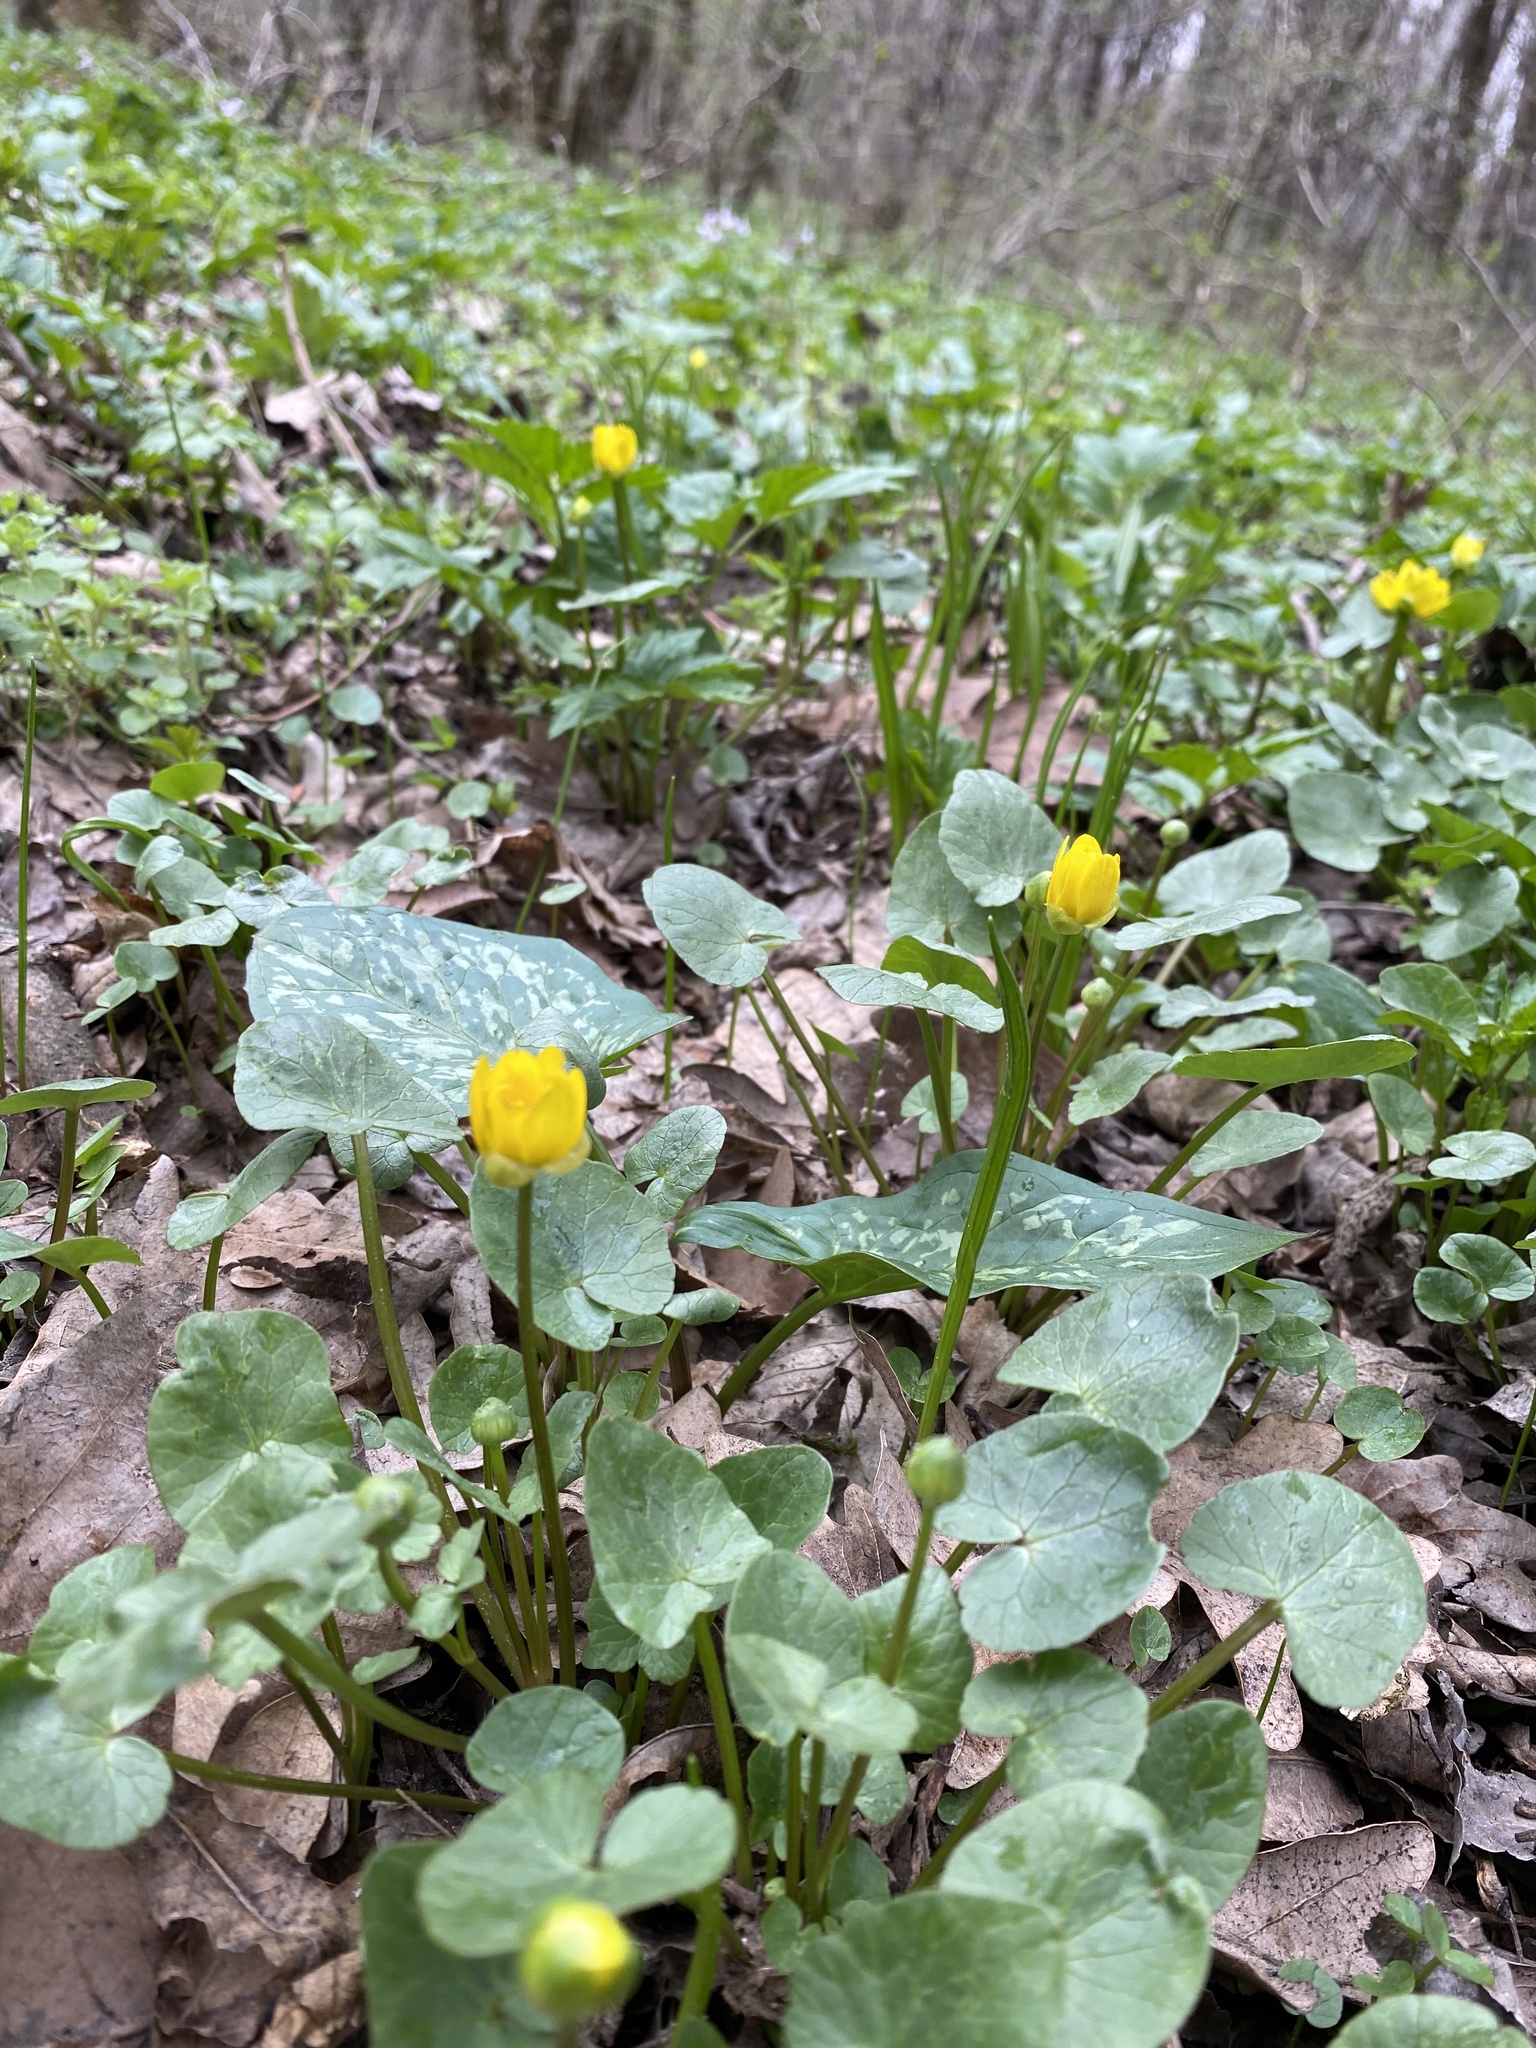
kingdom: Plantae
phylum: Tracheophyta
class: Magnoliopsida
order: Ranunculales
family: Ranunculaceae
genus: Ficaria
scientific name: Ficaria verna
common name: Lesser celandine
